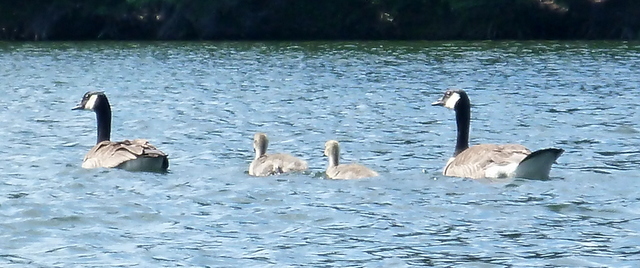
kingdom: Animalia
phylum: Chordata
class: Aves
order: Anseriformes
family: Anatidae
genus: Branta
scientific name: Branta canadensis
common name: Canada goose
